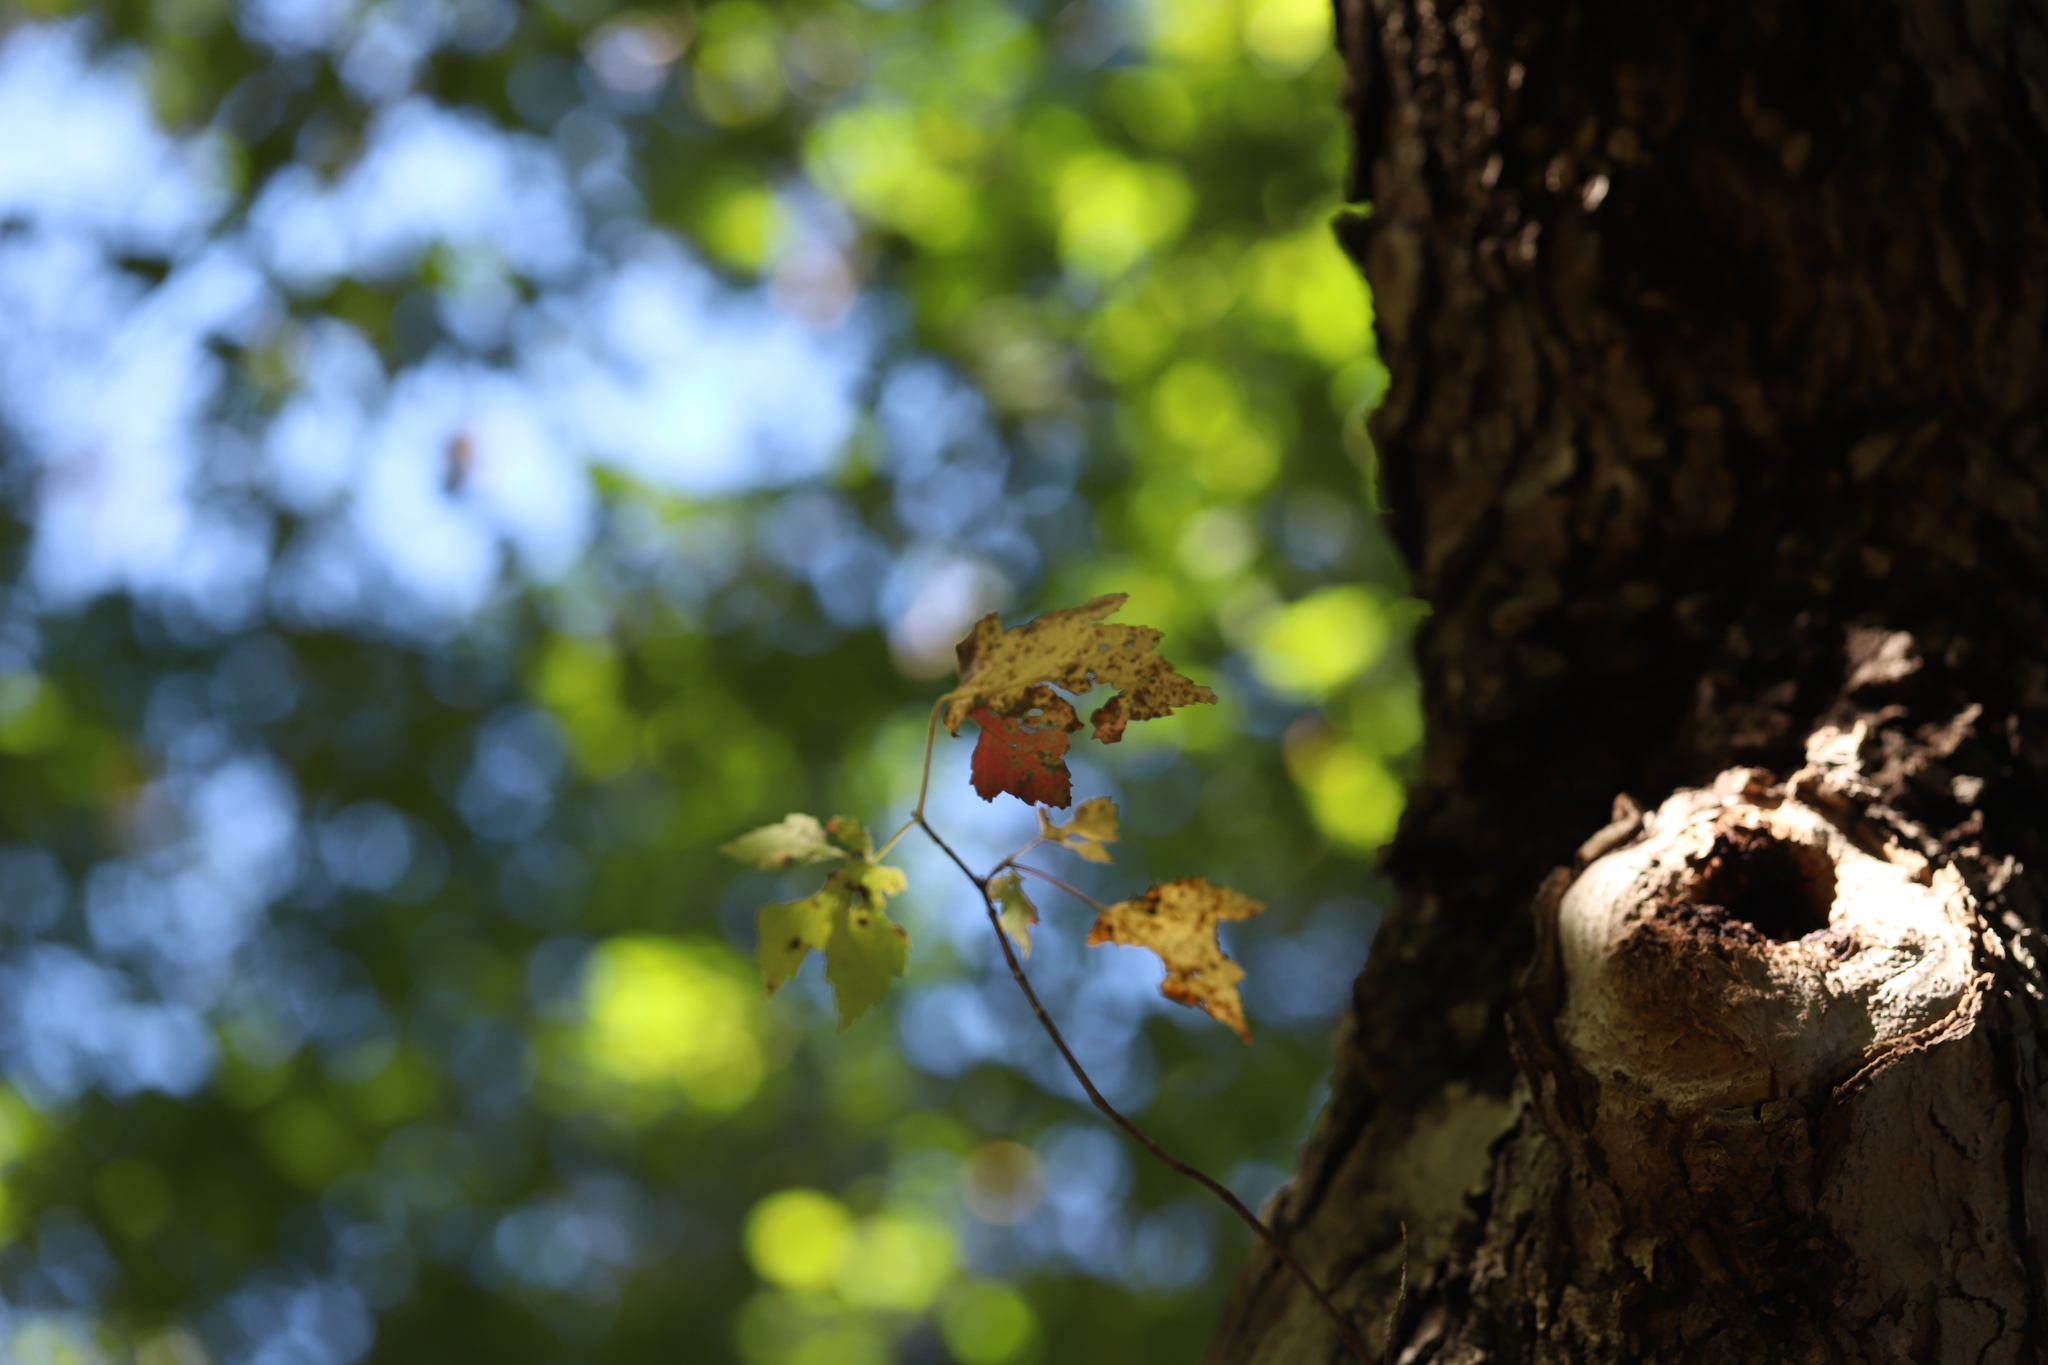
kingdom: Plantae
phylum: Tracheophyta
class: Magnoliopsida
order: Sapindales
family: Sapindaceae
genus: Acer
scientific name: Acer rubrum
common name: Red maple
